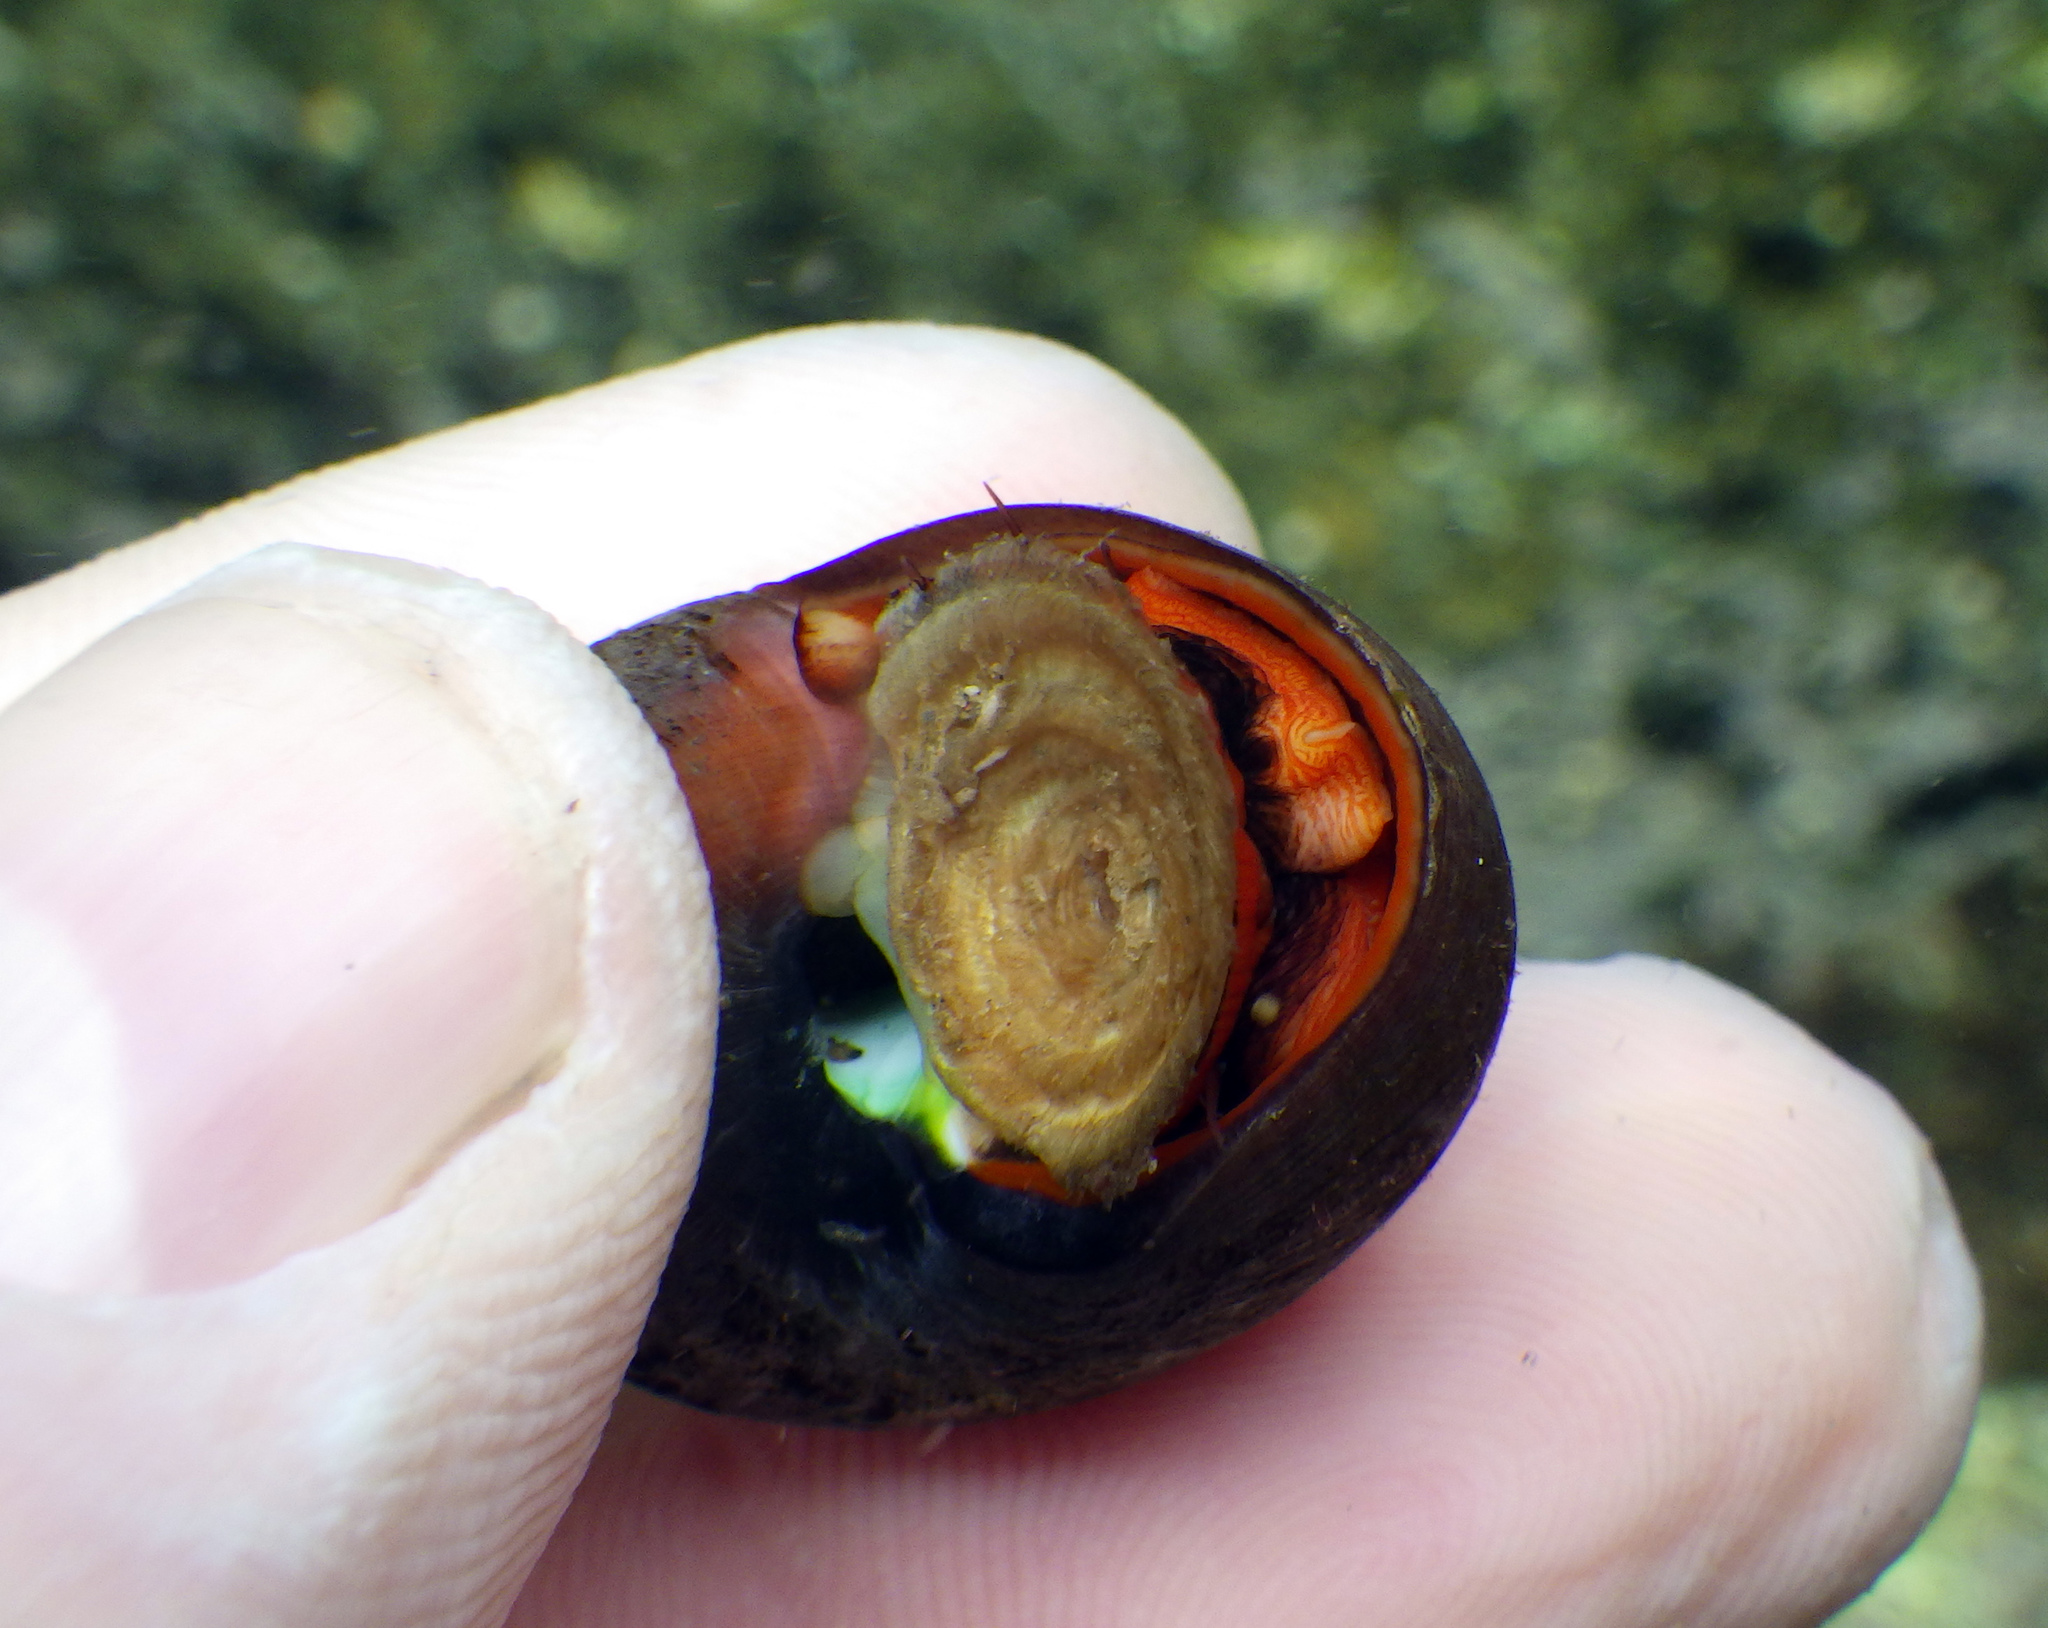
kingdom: Animalia
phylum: Mollusca
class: Gastropoda
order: Trochida
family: Tegulidae
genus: Norrisia
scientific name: Norrisia norrisii
